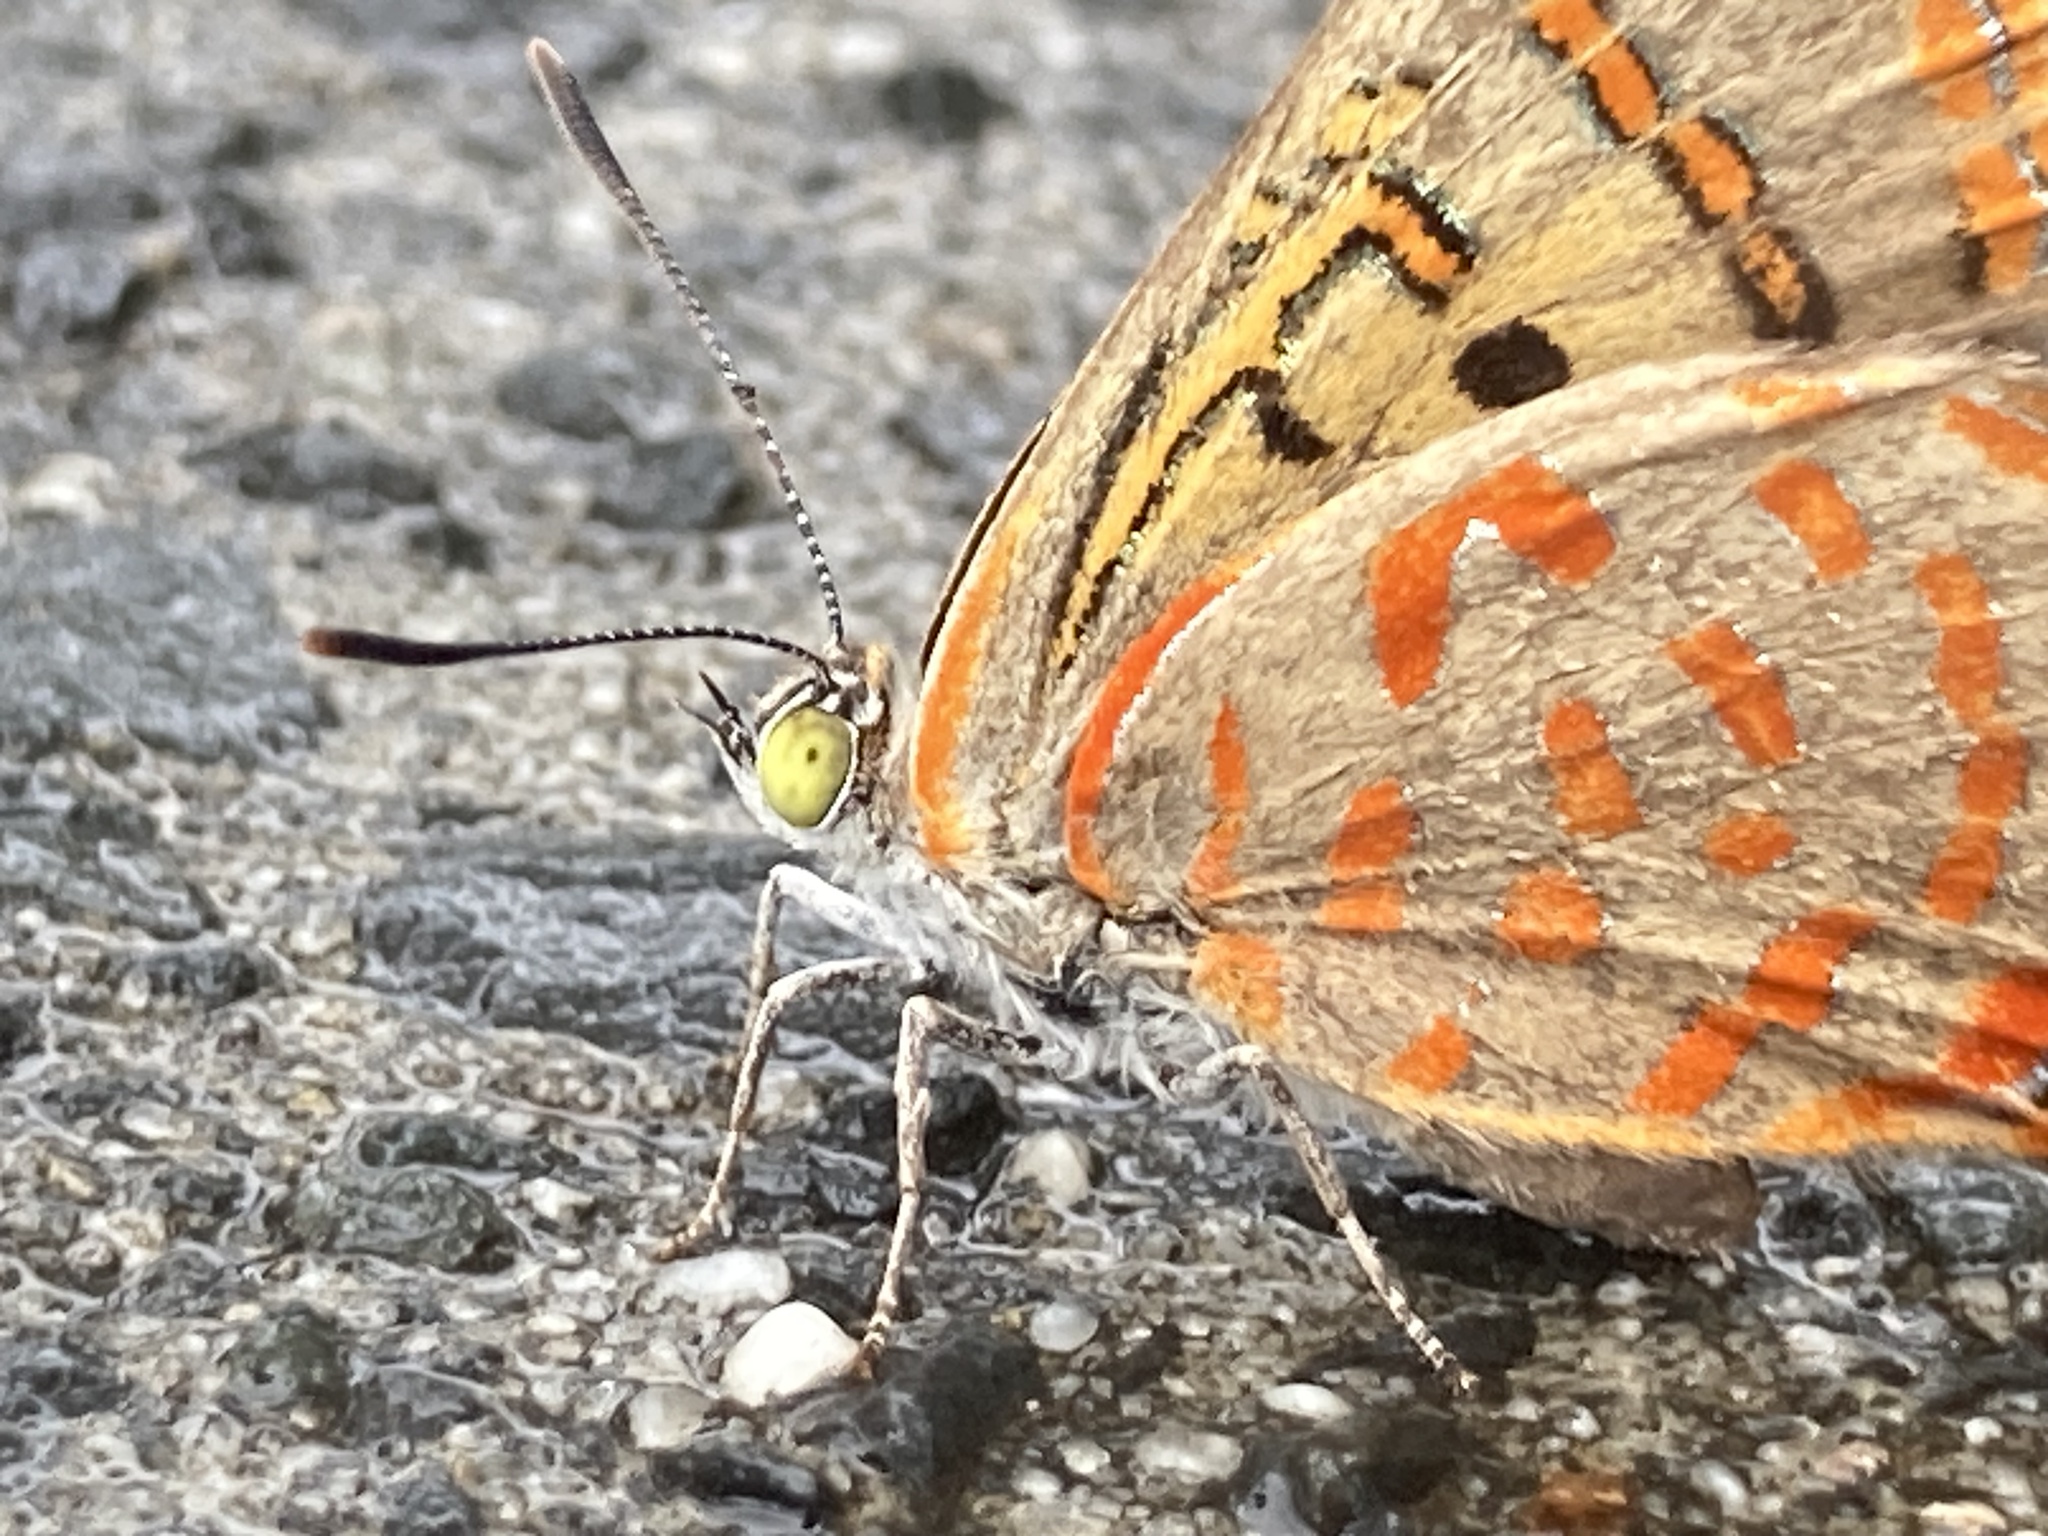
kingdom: Animalia
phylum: Arthropoda
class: Insecta
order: Lepidoptera
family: Lycaenidae
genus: Hypochrysops
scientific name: Hypochrysops delicia
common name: Moonlight jewel
